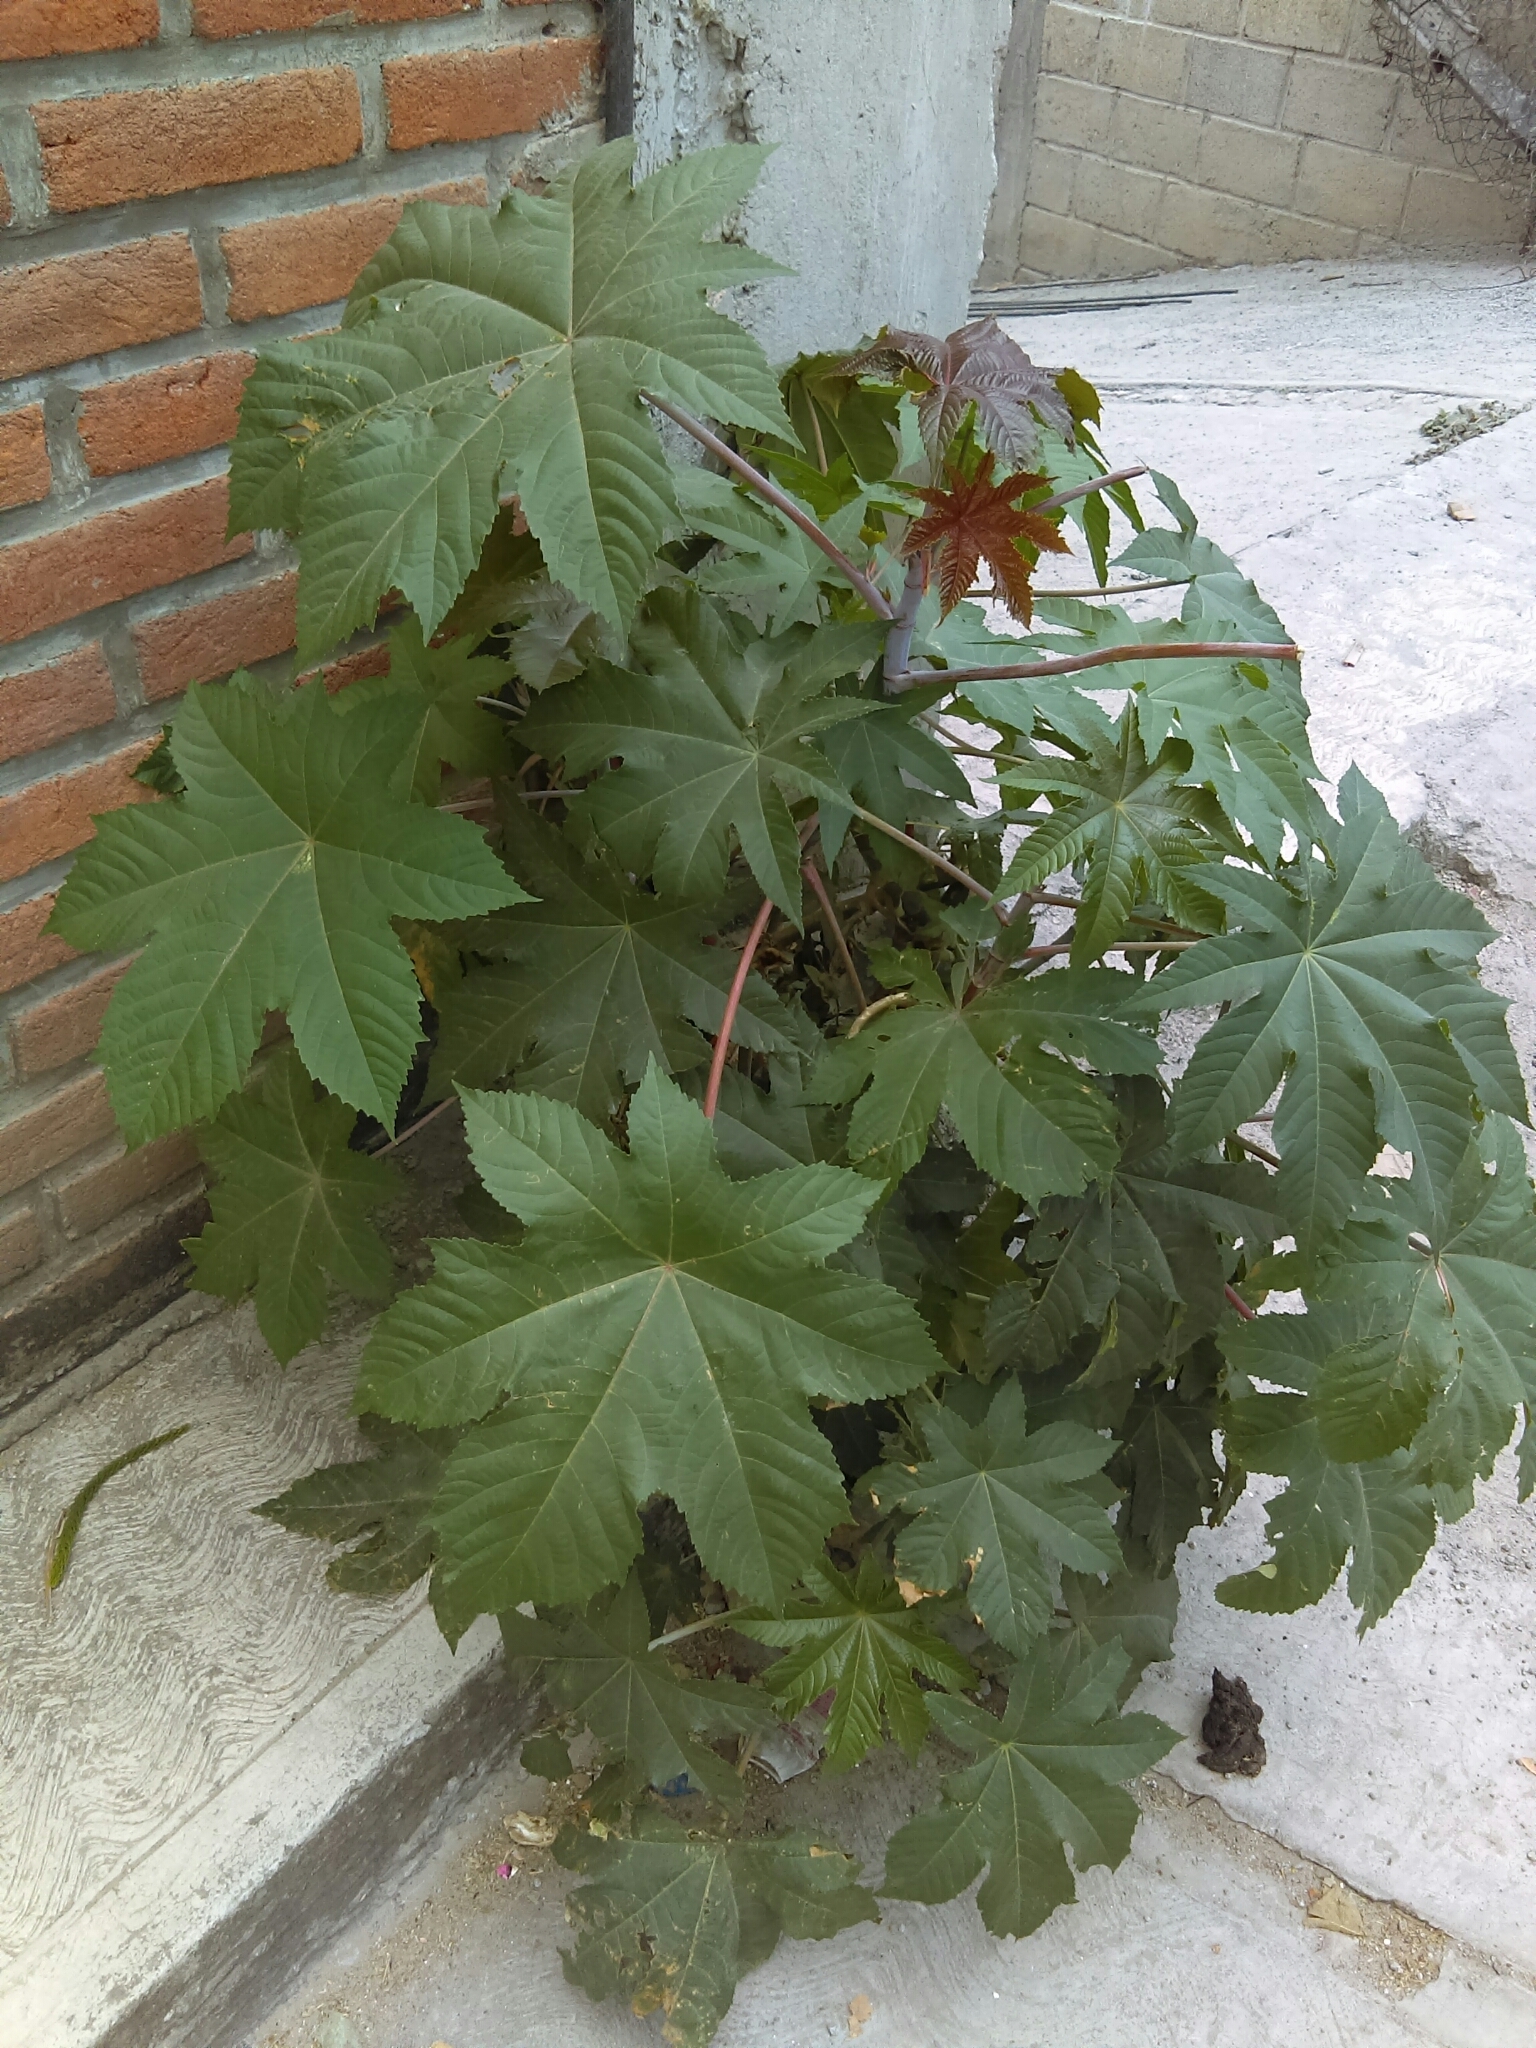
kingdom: Plantae
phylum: Tracheophyta
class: Magnoliopsida
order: Malpighiales
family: Euphorbiaceae
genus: Ricinus
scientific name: Ricinus communis
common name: Castor-oil-plant
